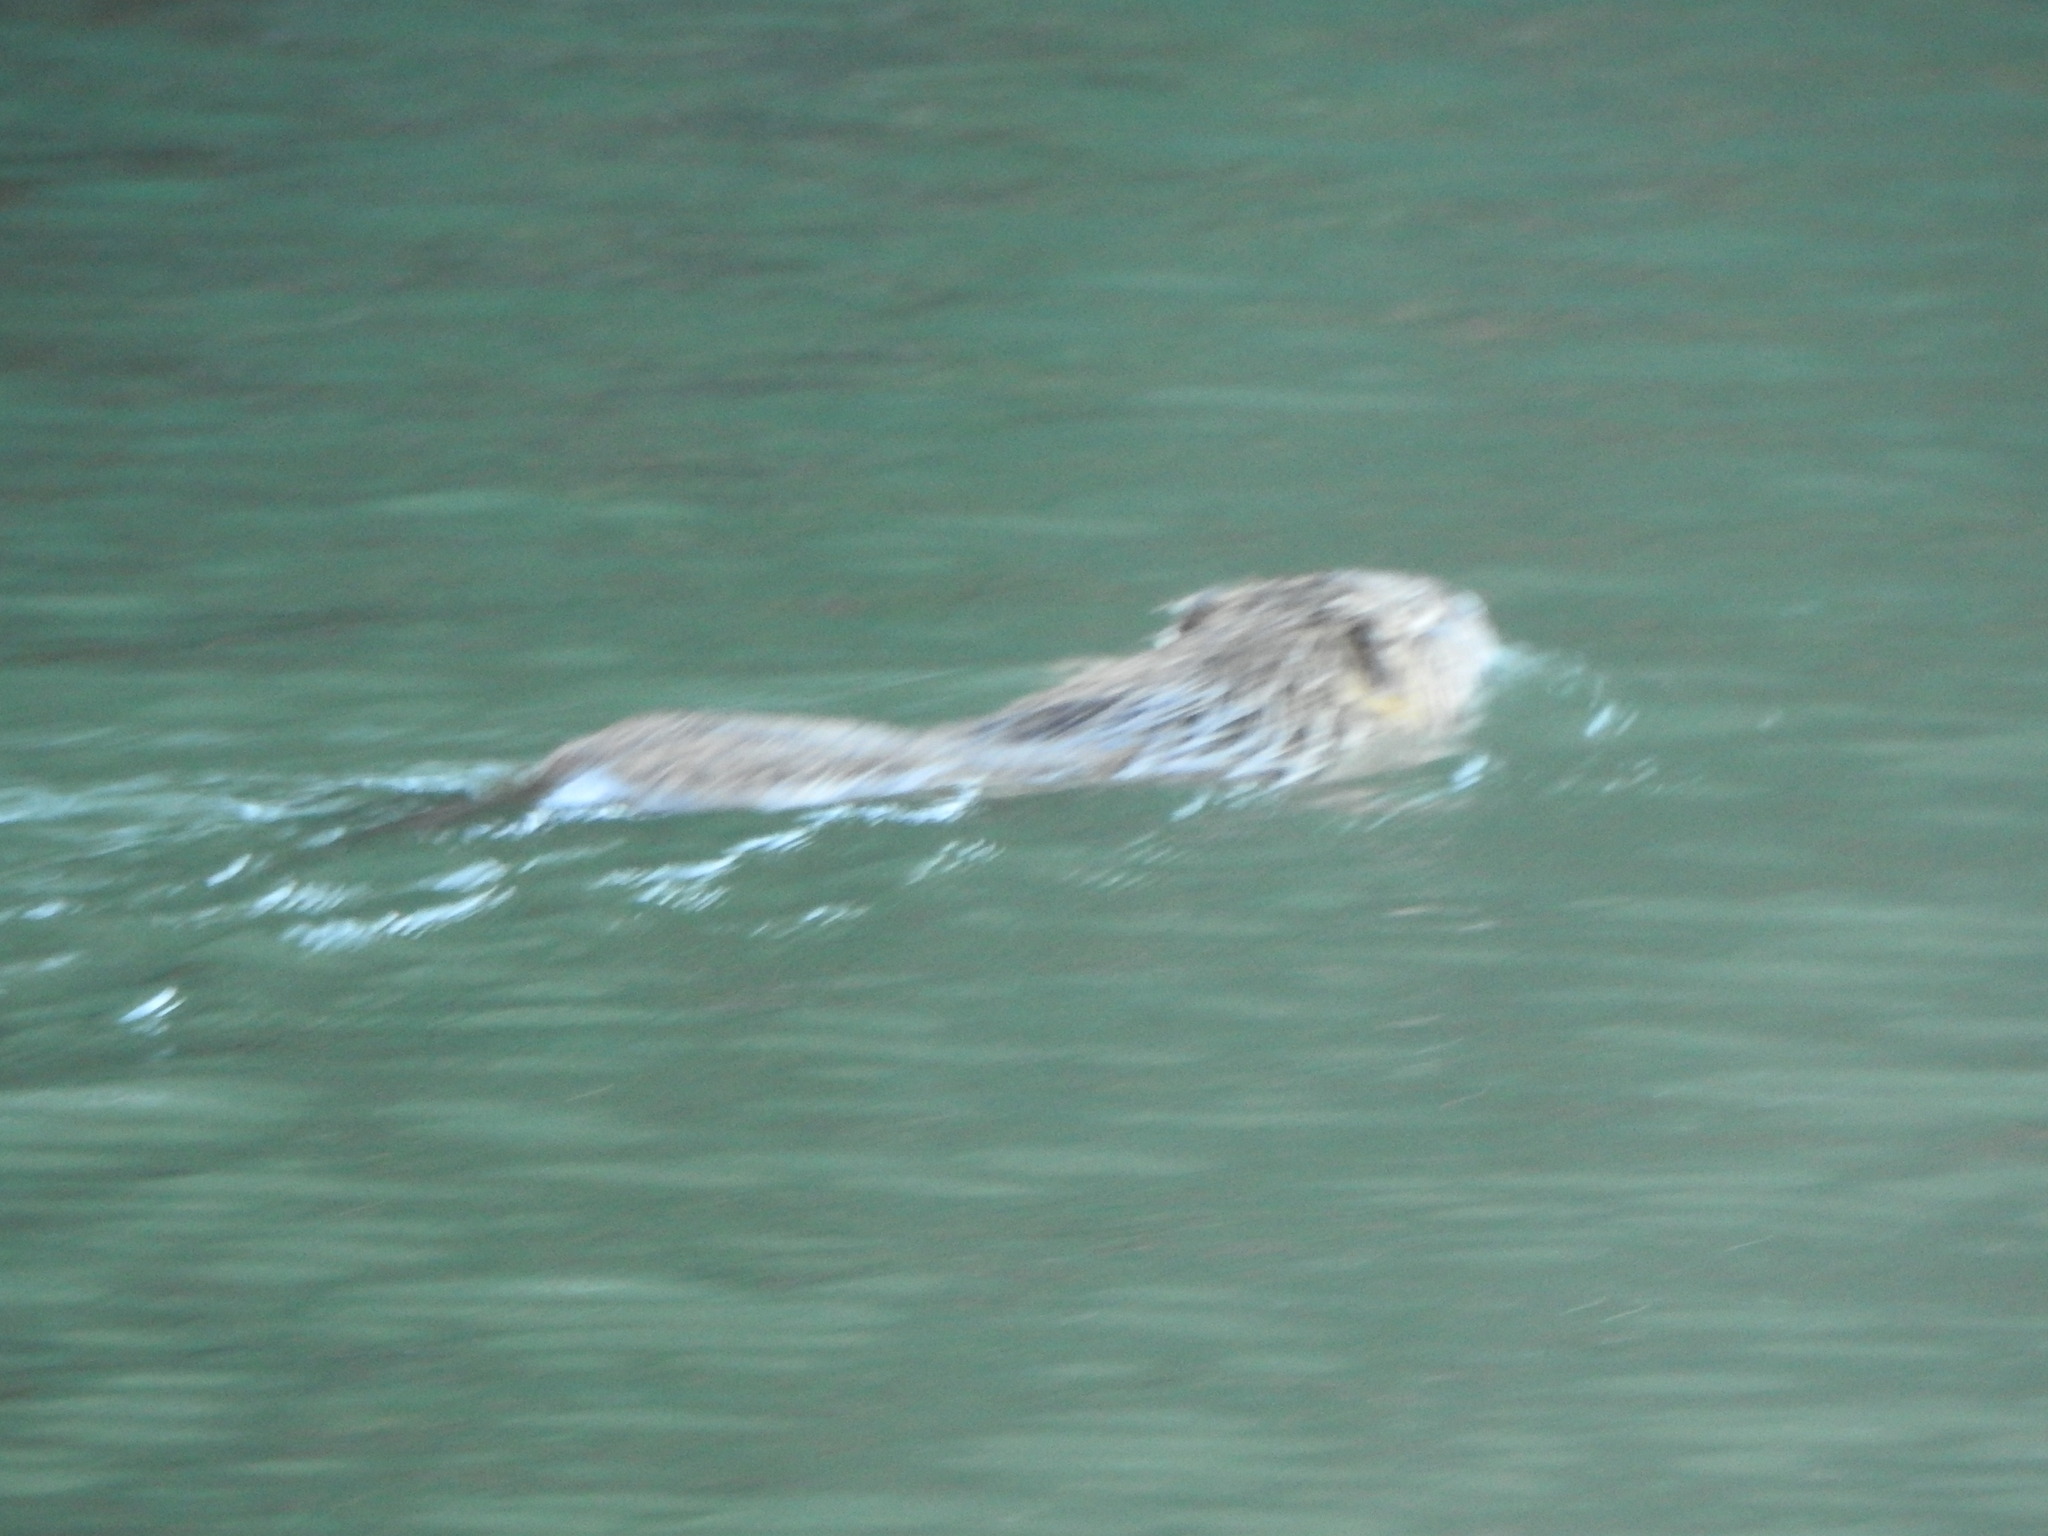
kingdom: Animalia
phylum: Chordata
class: Mammalia
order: Rodentia
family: Myocastoridae
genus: Myocastor
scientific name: Myocastor coypus
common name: Coypu
